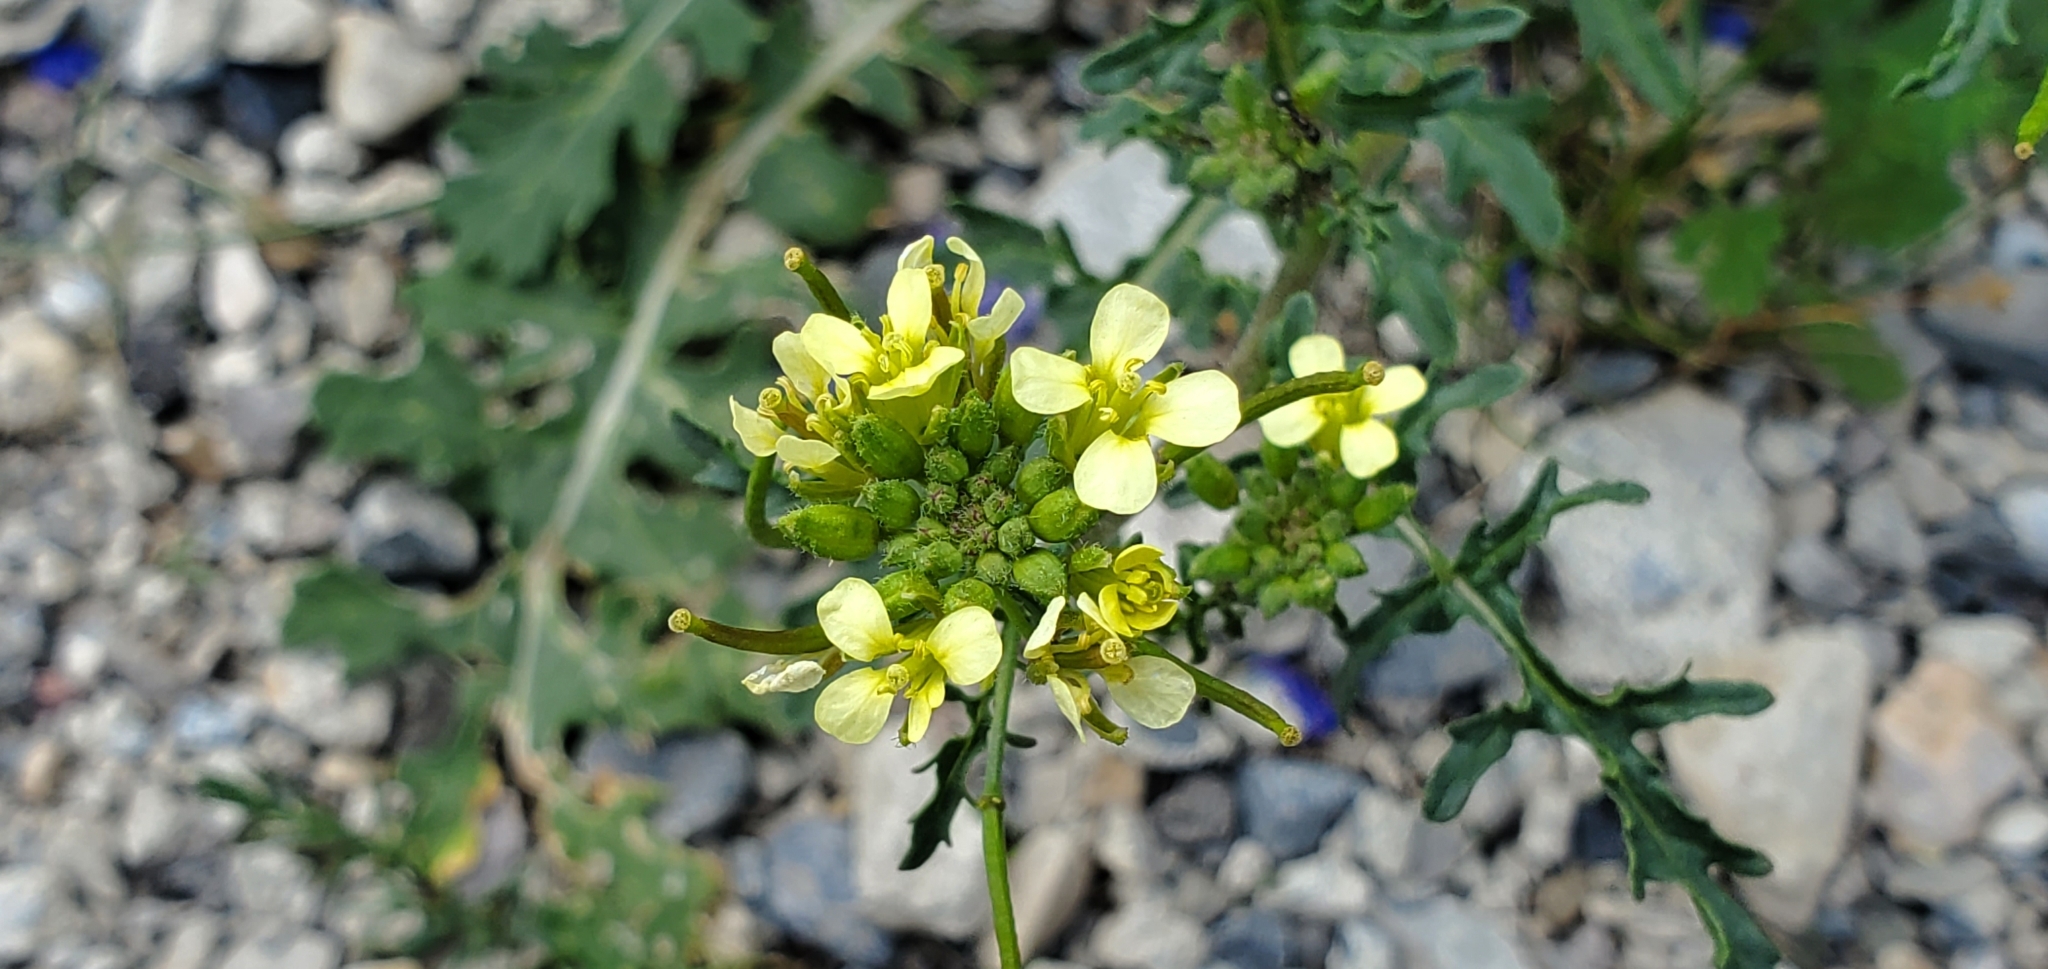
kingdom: Plantae
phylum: Tracheophyta
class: Magnoliopsida
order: Brassicales
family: Brassicaceae
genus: Erucastrum
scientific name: Erucastrum gallicum
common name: Hairy rocket
